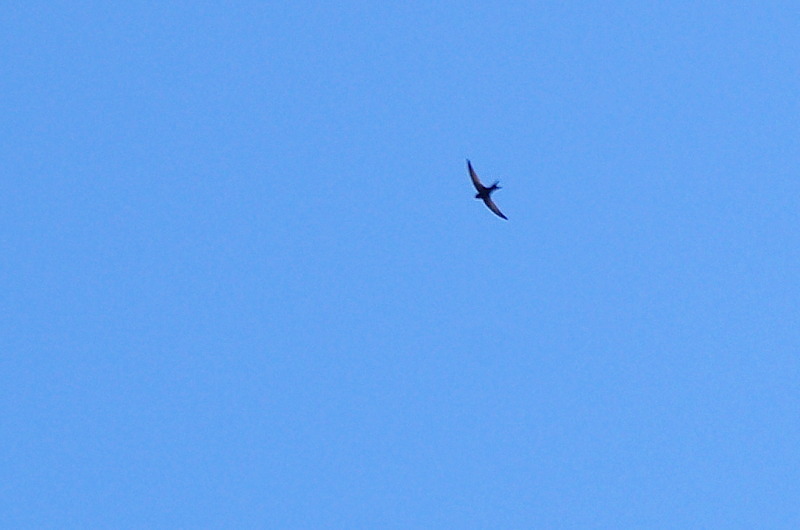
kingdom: Animalia
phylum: Chordata
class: Aves
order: Apodiformes
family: Apodidae
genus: Apus
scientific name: Apus apus
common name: Common swift
